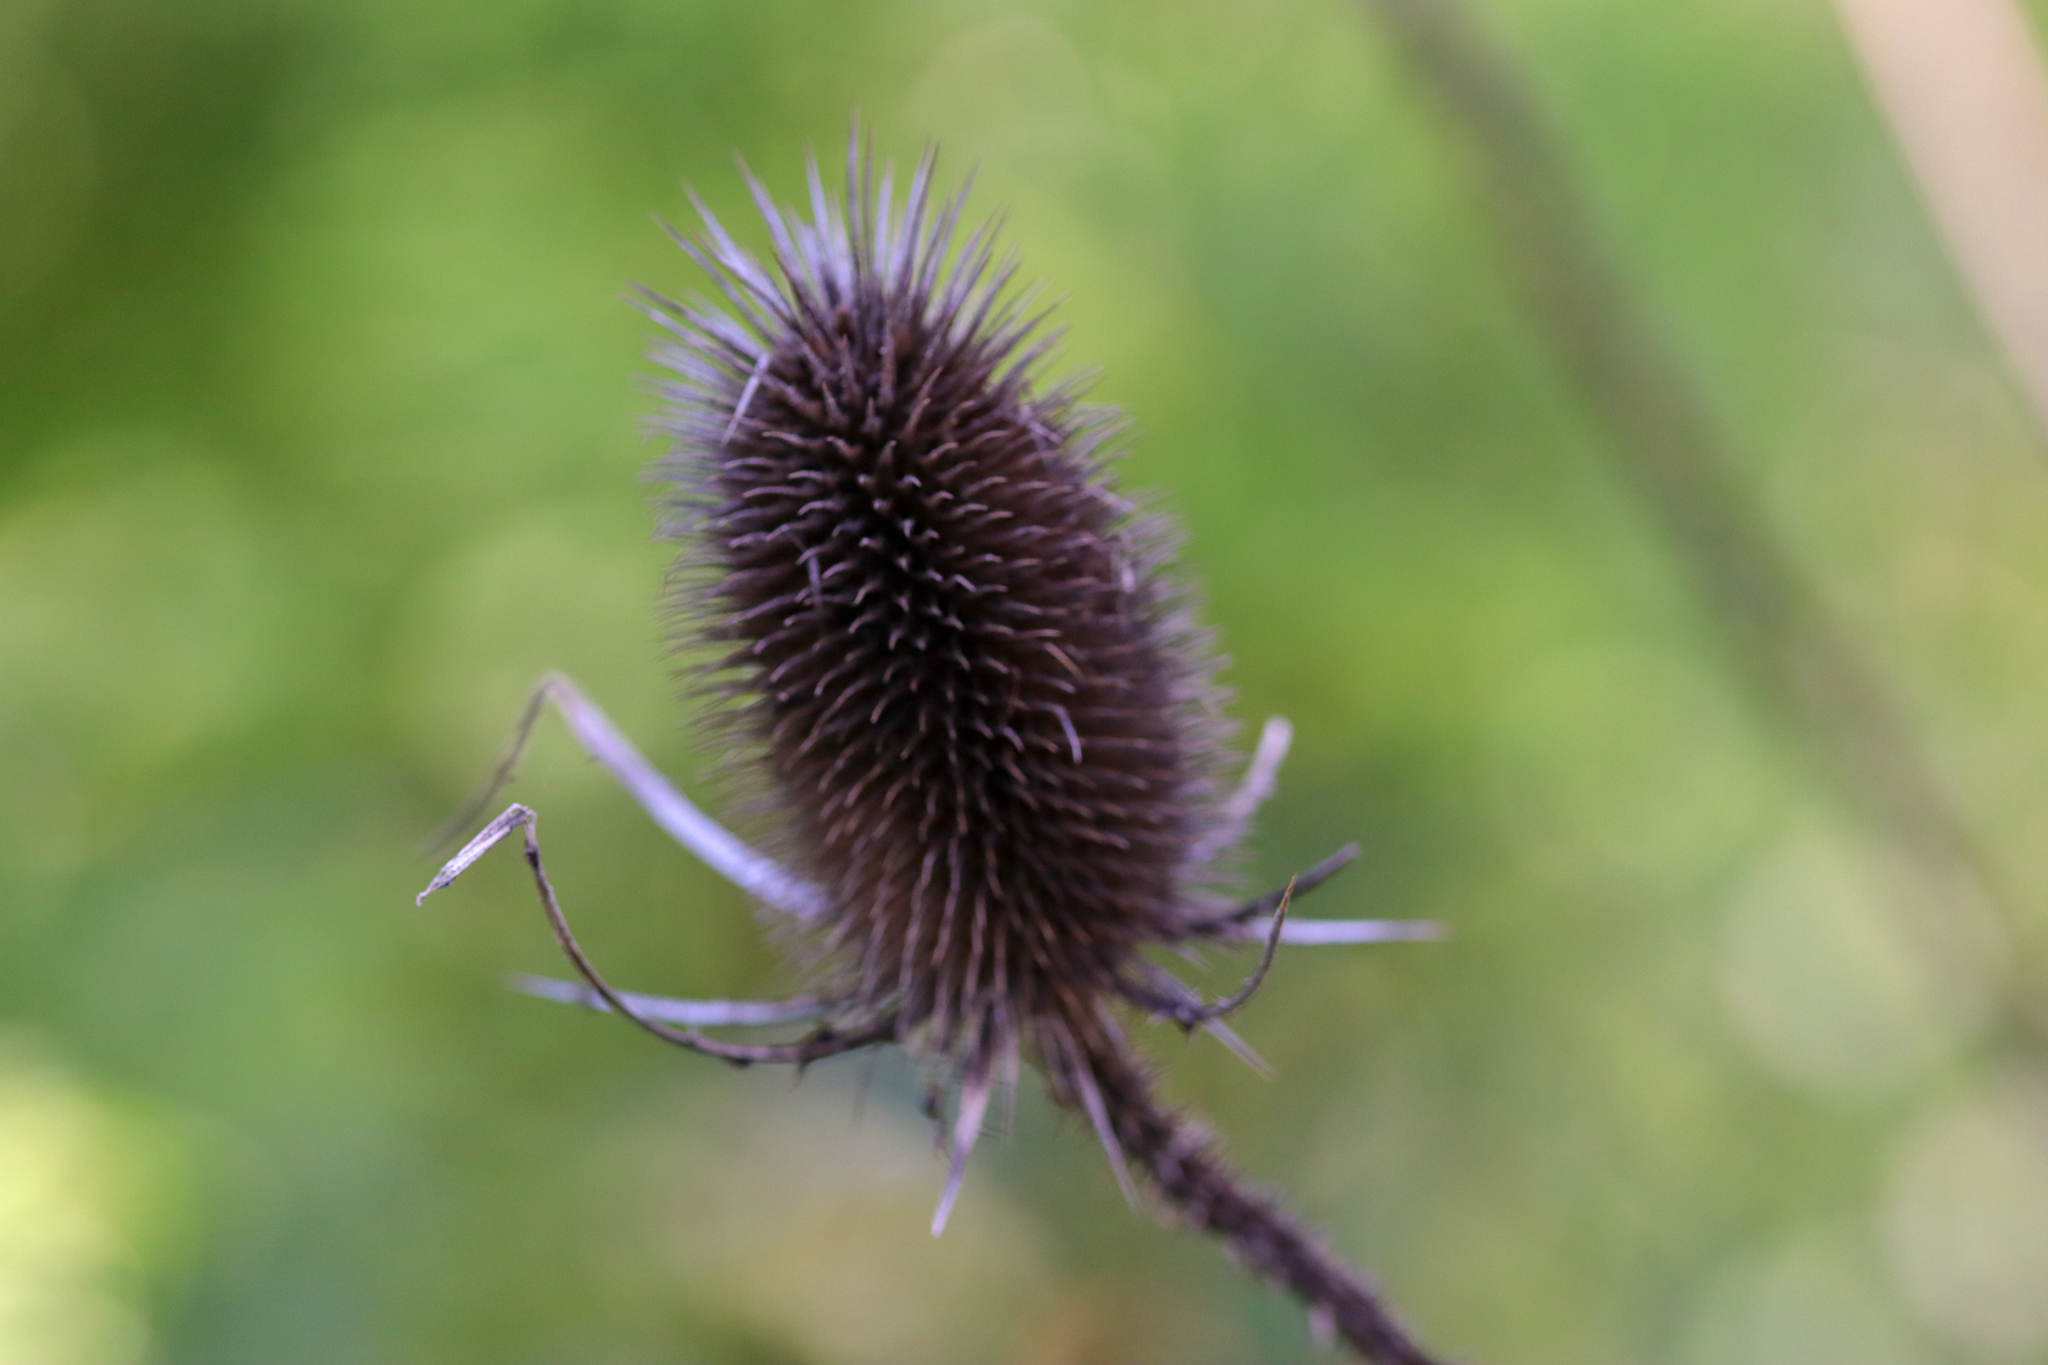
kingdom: Plantae
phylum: Tracheophyta
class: Magnoliopsida
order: Dipsacales
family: Caprifoliaceae
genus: Dipsacus
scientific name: Dipsacus fullonum
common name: Teasel
